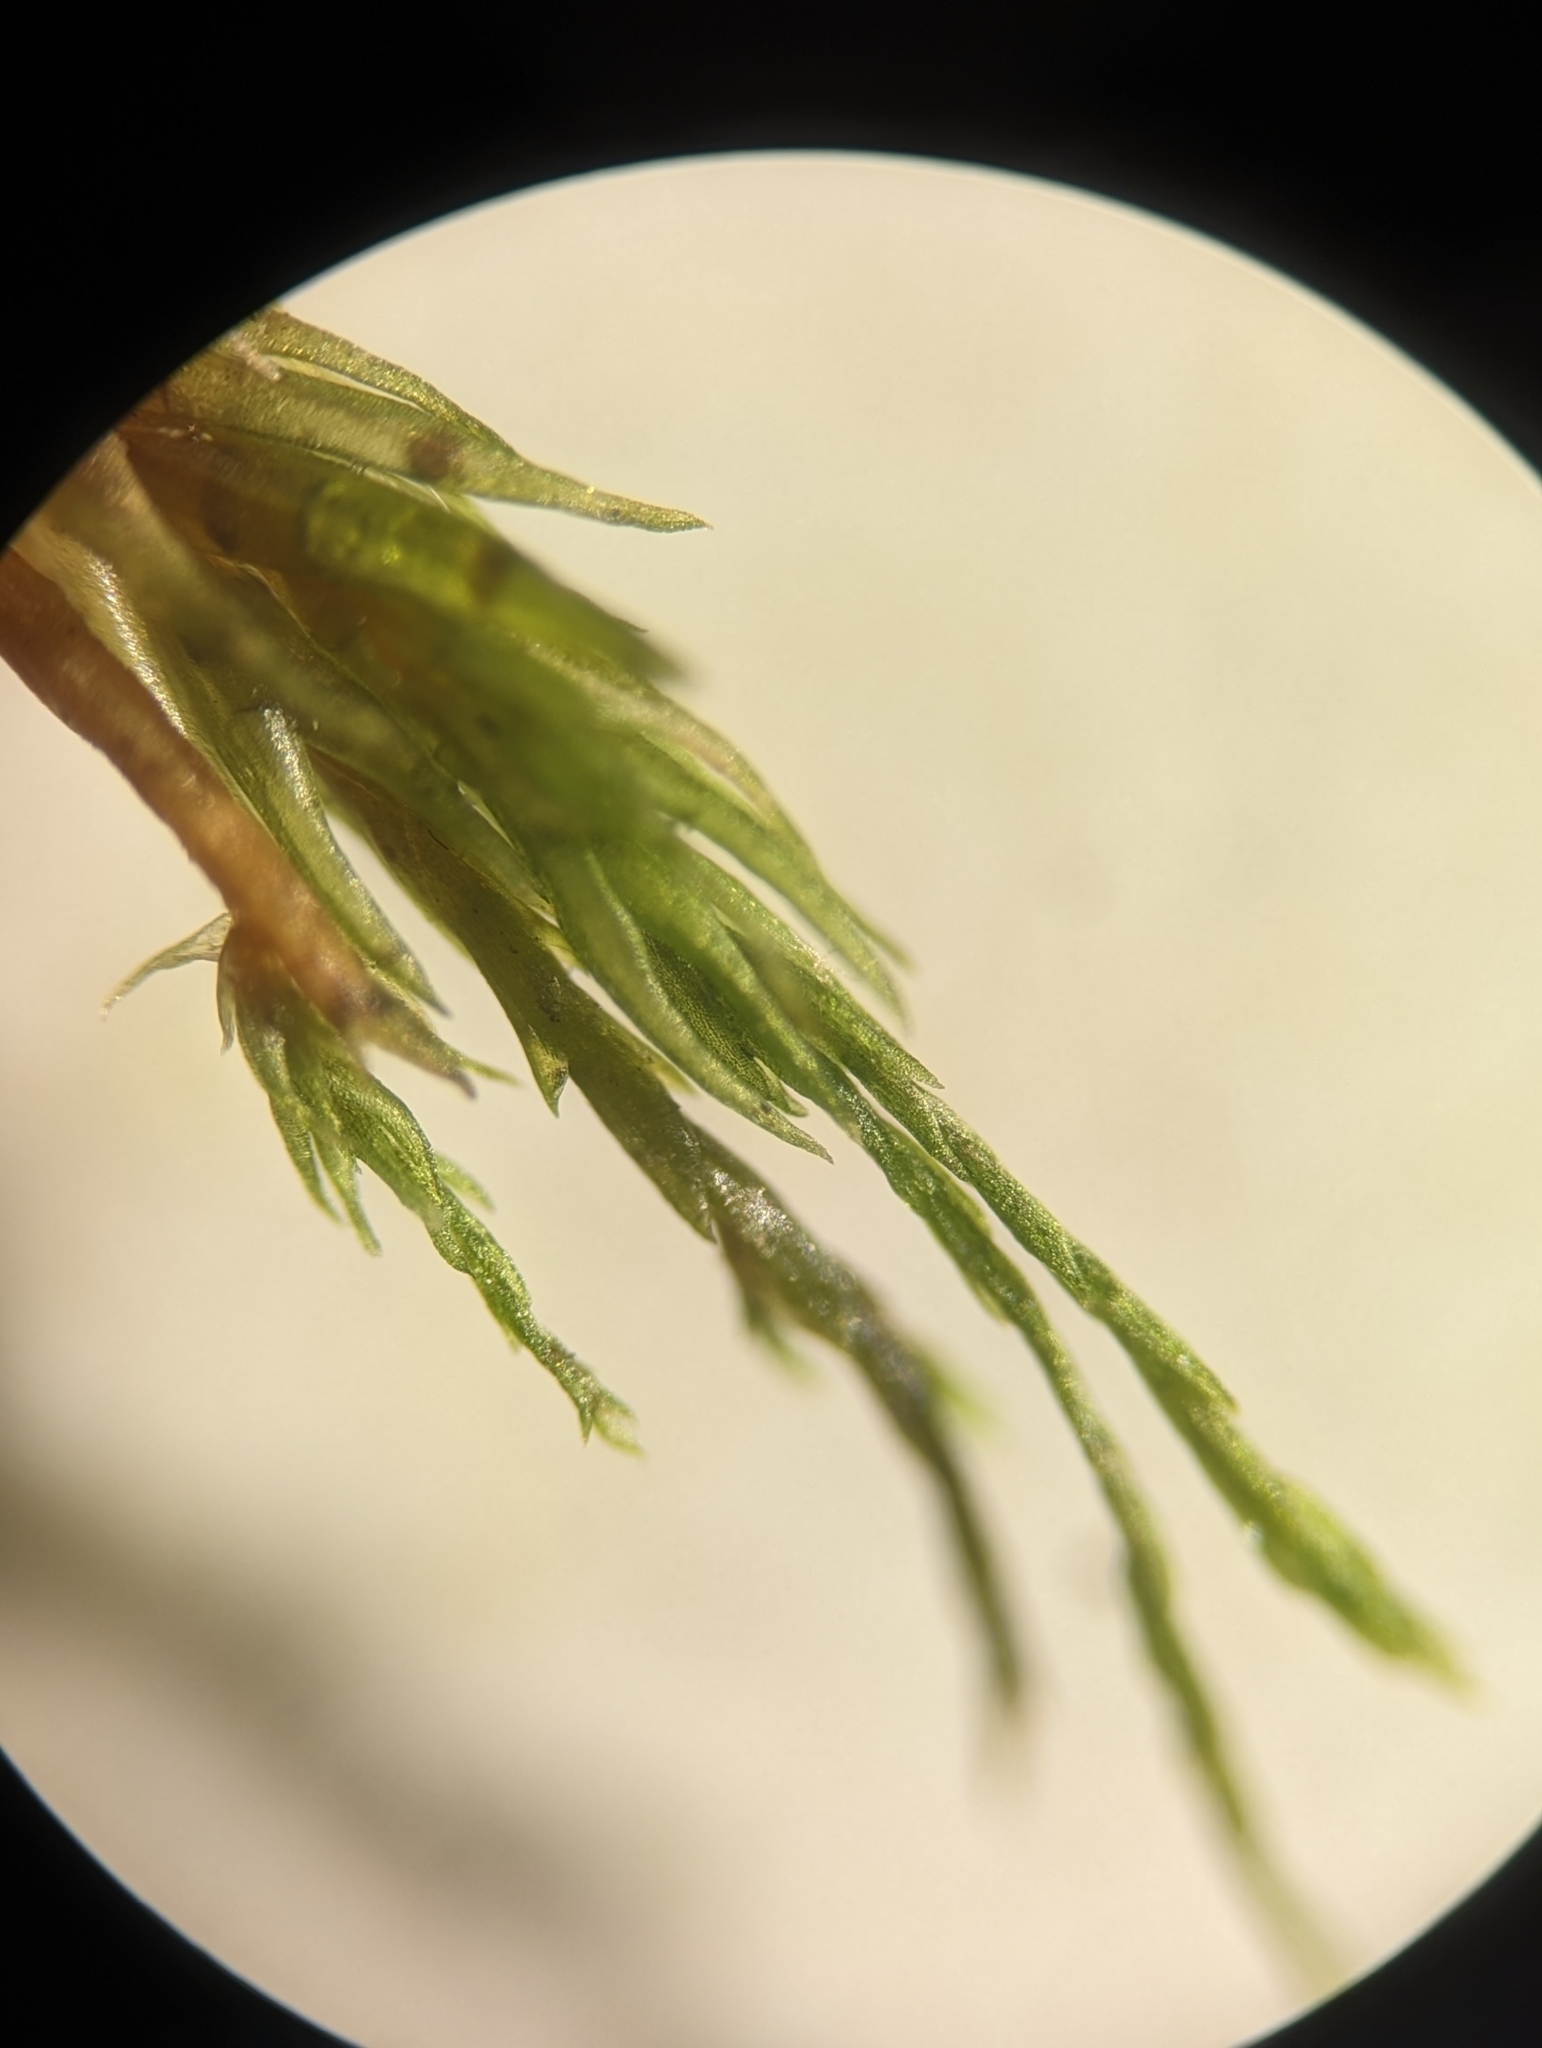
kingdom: Plantae
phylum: Bryophyta
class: Bryopsida
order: Dicranales
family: Dicranaceae
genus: Orthodicranum
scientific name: Orthodicranum flagellare
